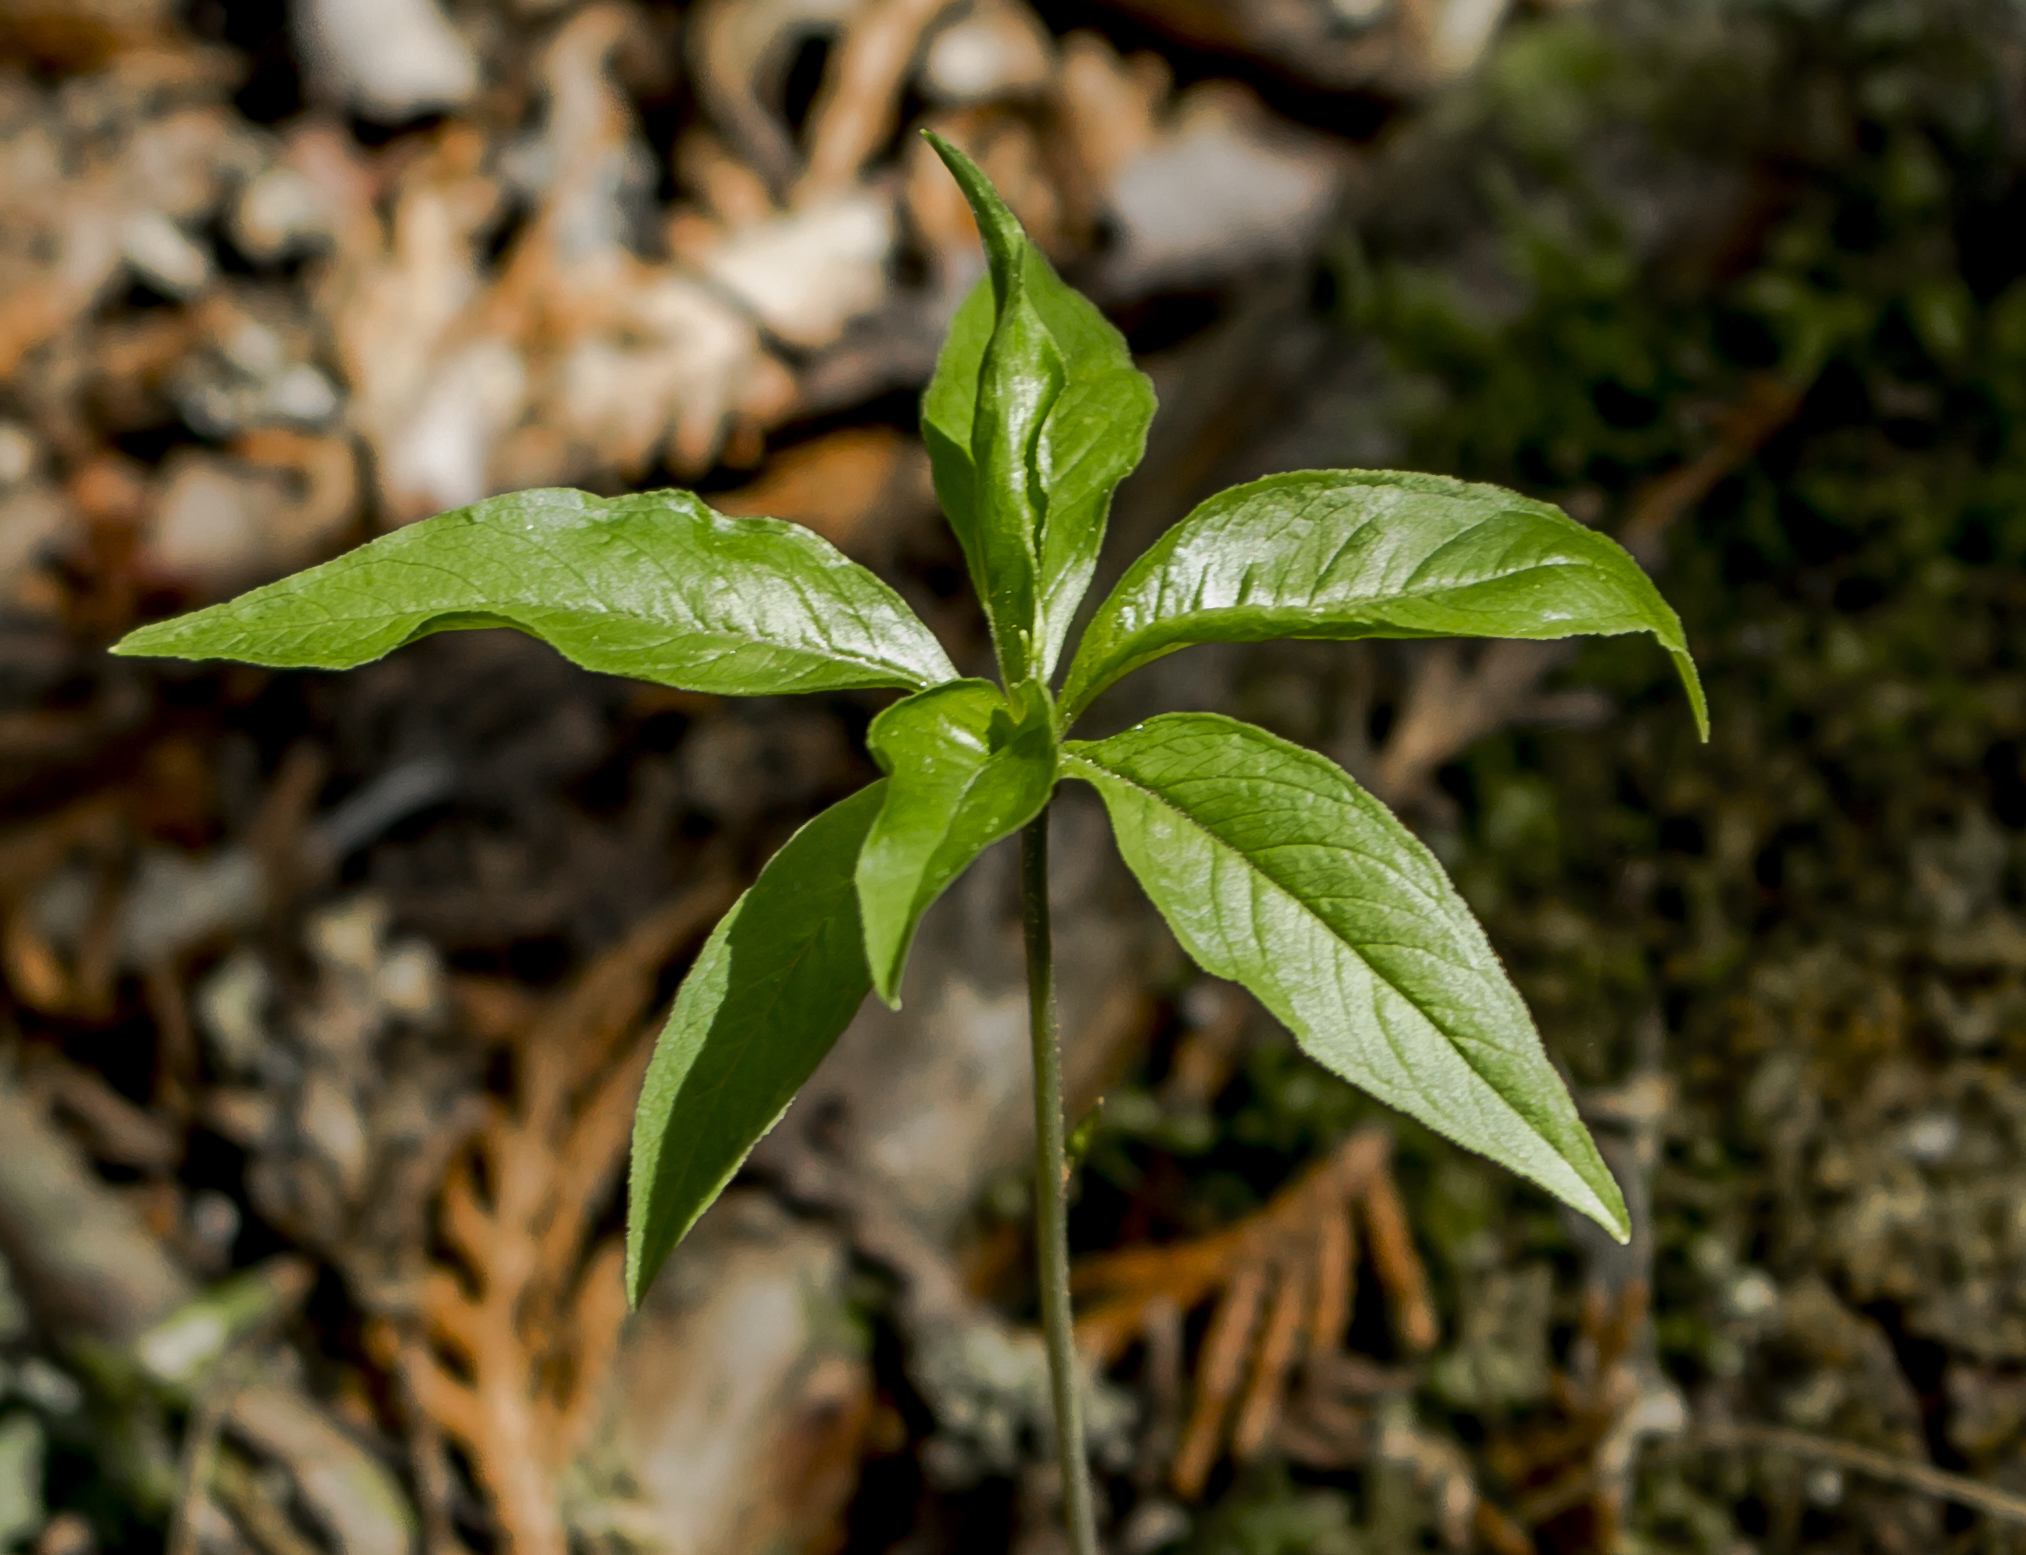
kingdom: Plantae
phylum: Tracheophyta
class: Magnoliopsida
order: Ericales
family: Primulaceae
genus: Lysimachia
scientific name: Lysimachia borealis
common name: American starflower
